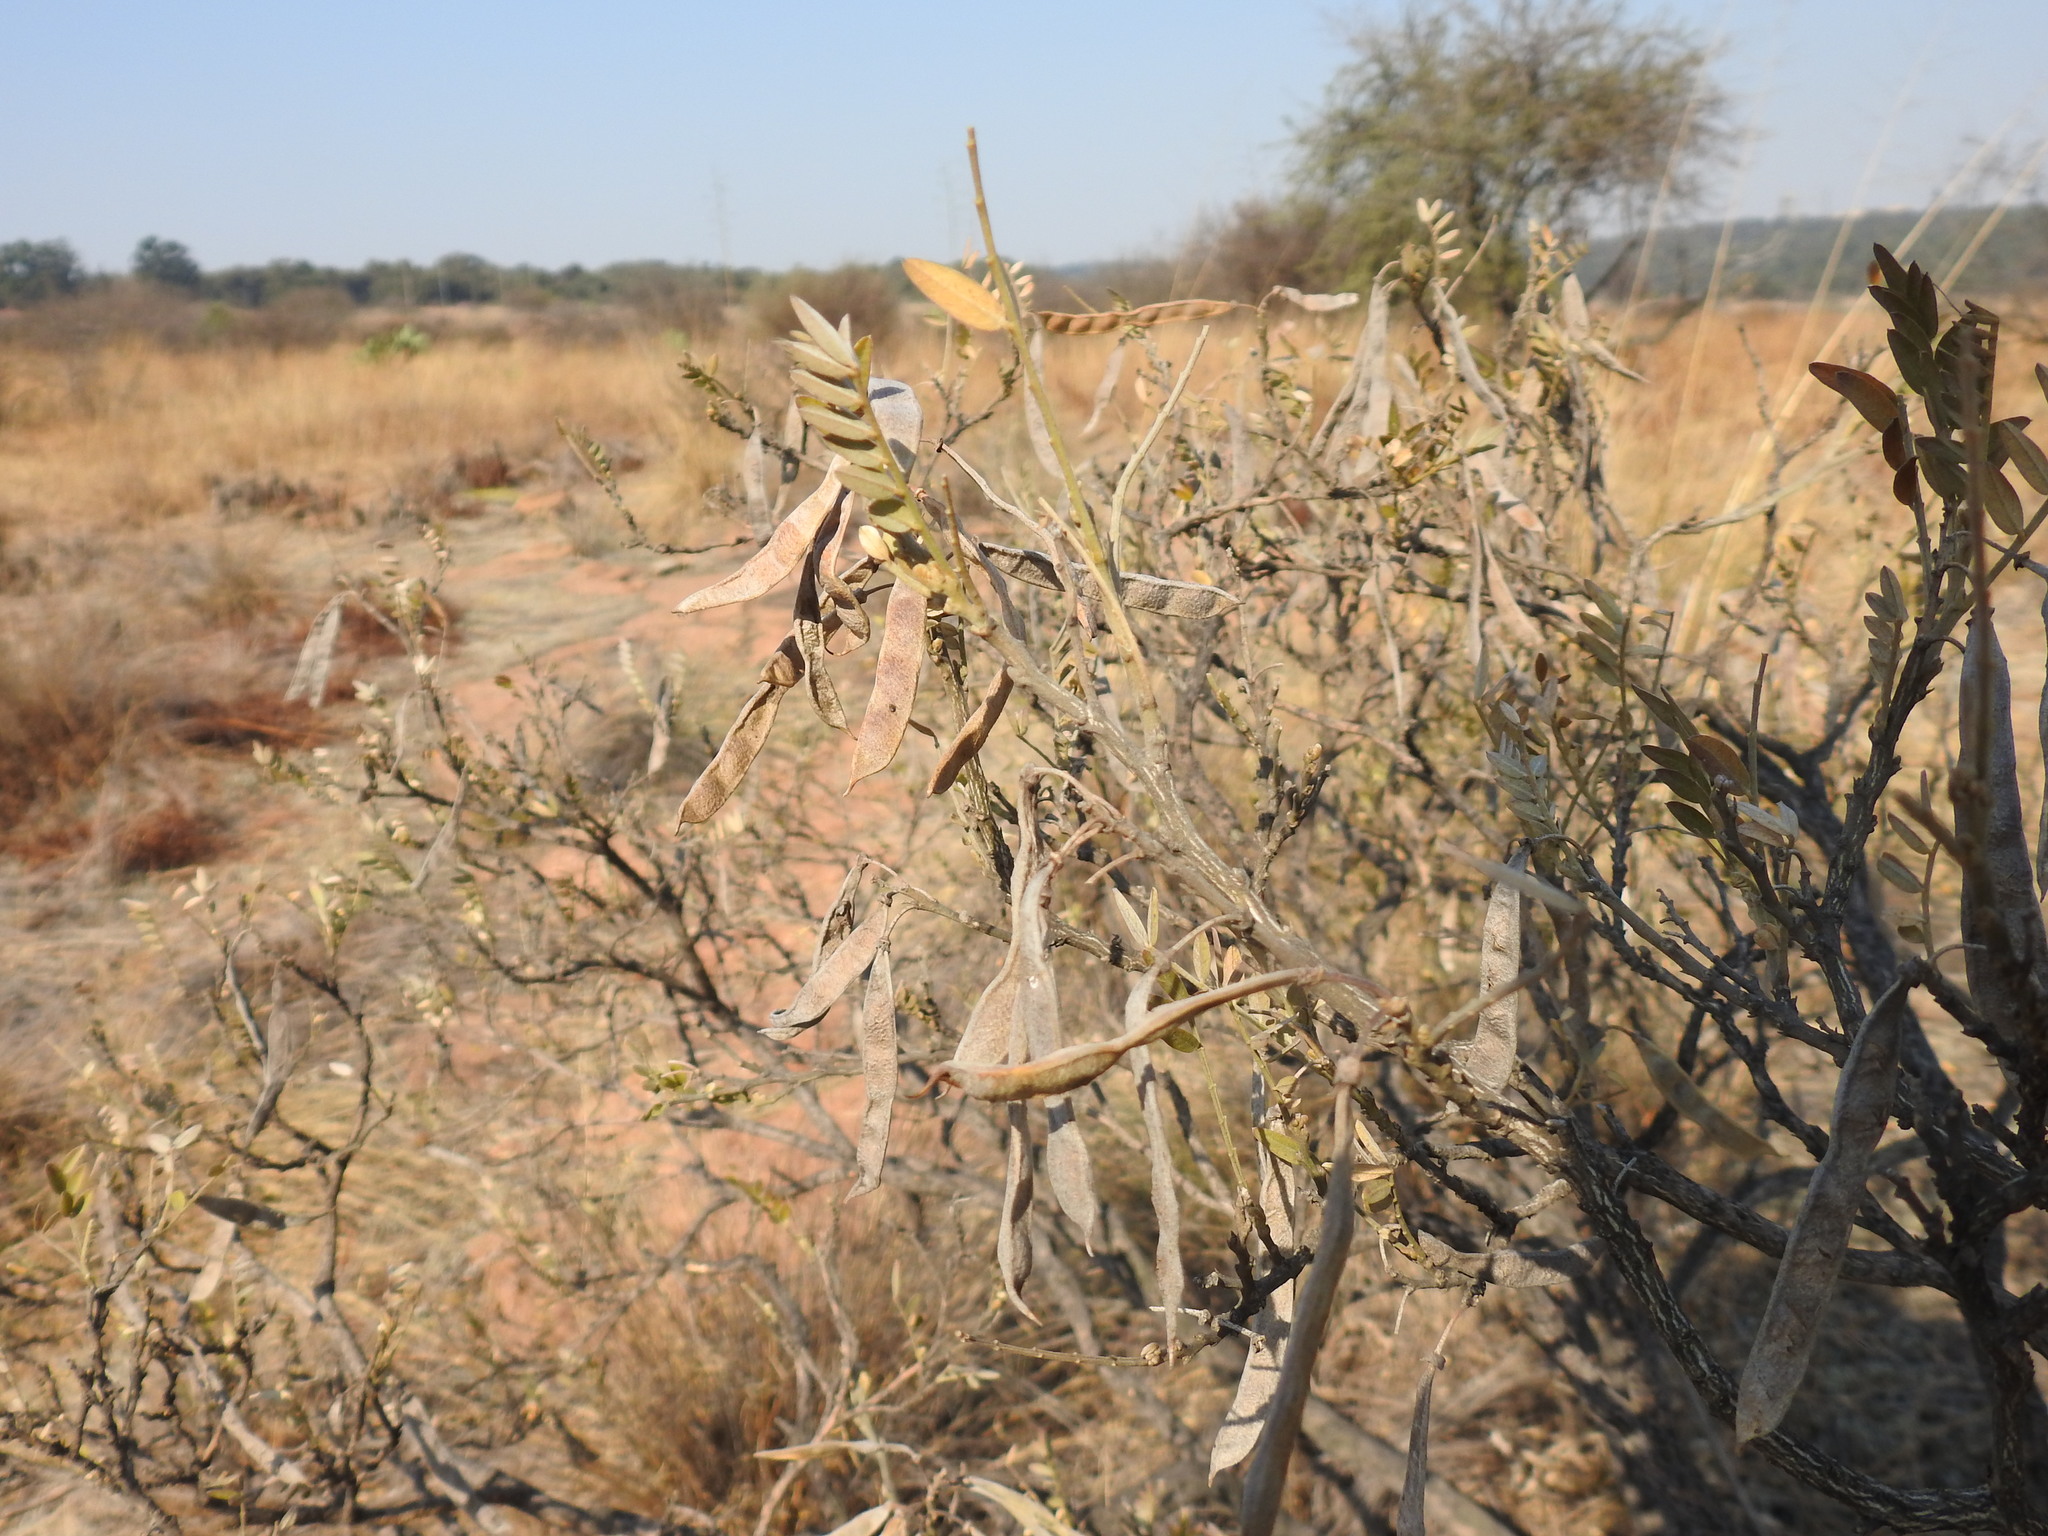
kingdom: Plantae
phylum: Tracheophyta
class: Magnoliopsida
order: Fabales
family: Fabaceae
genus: Mundulea
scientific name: Mundulea sericea
